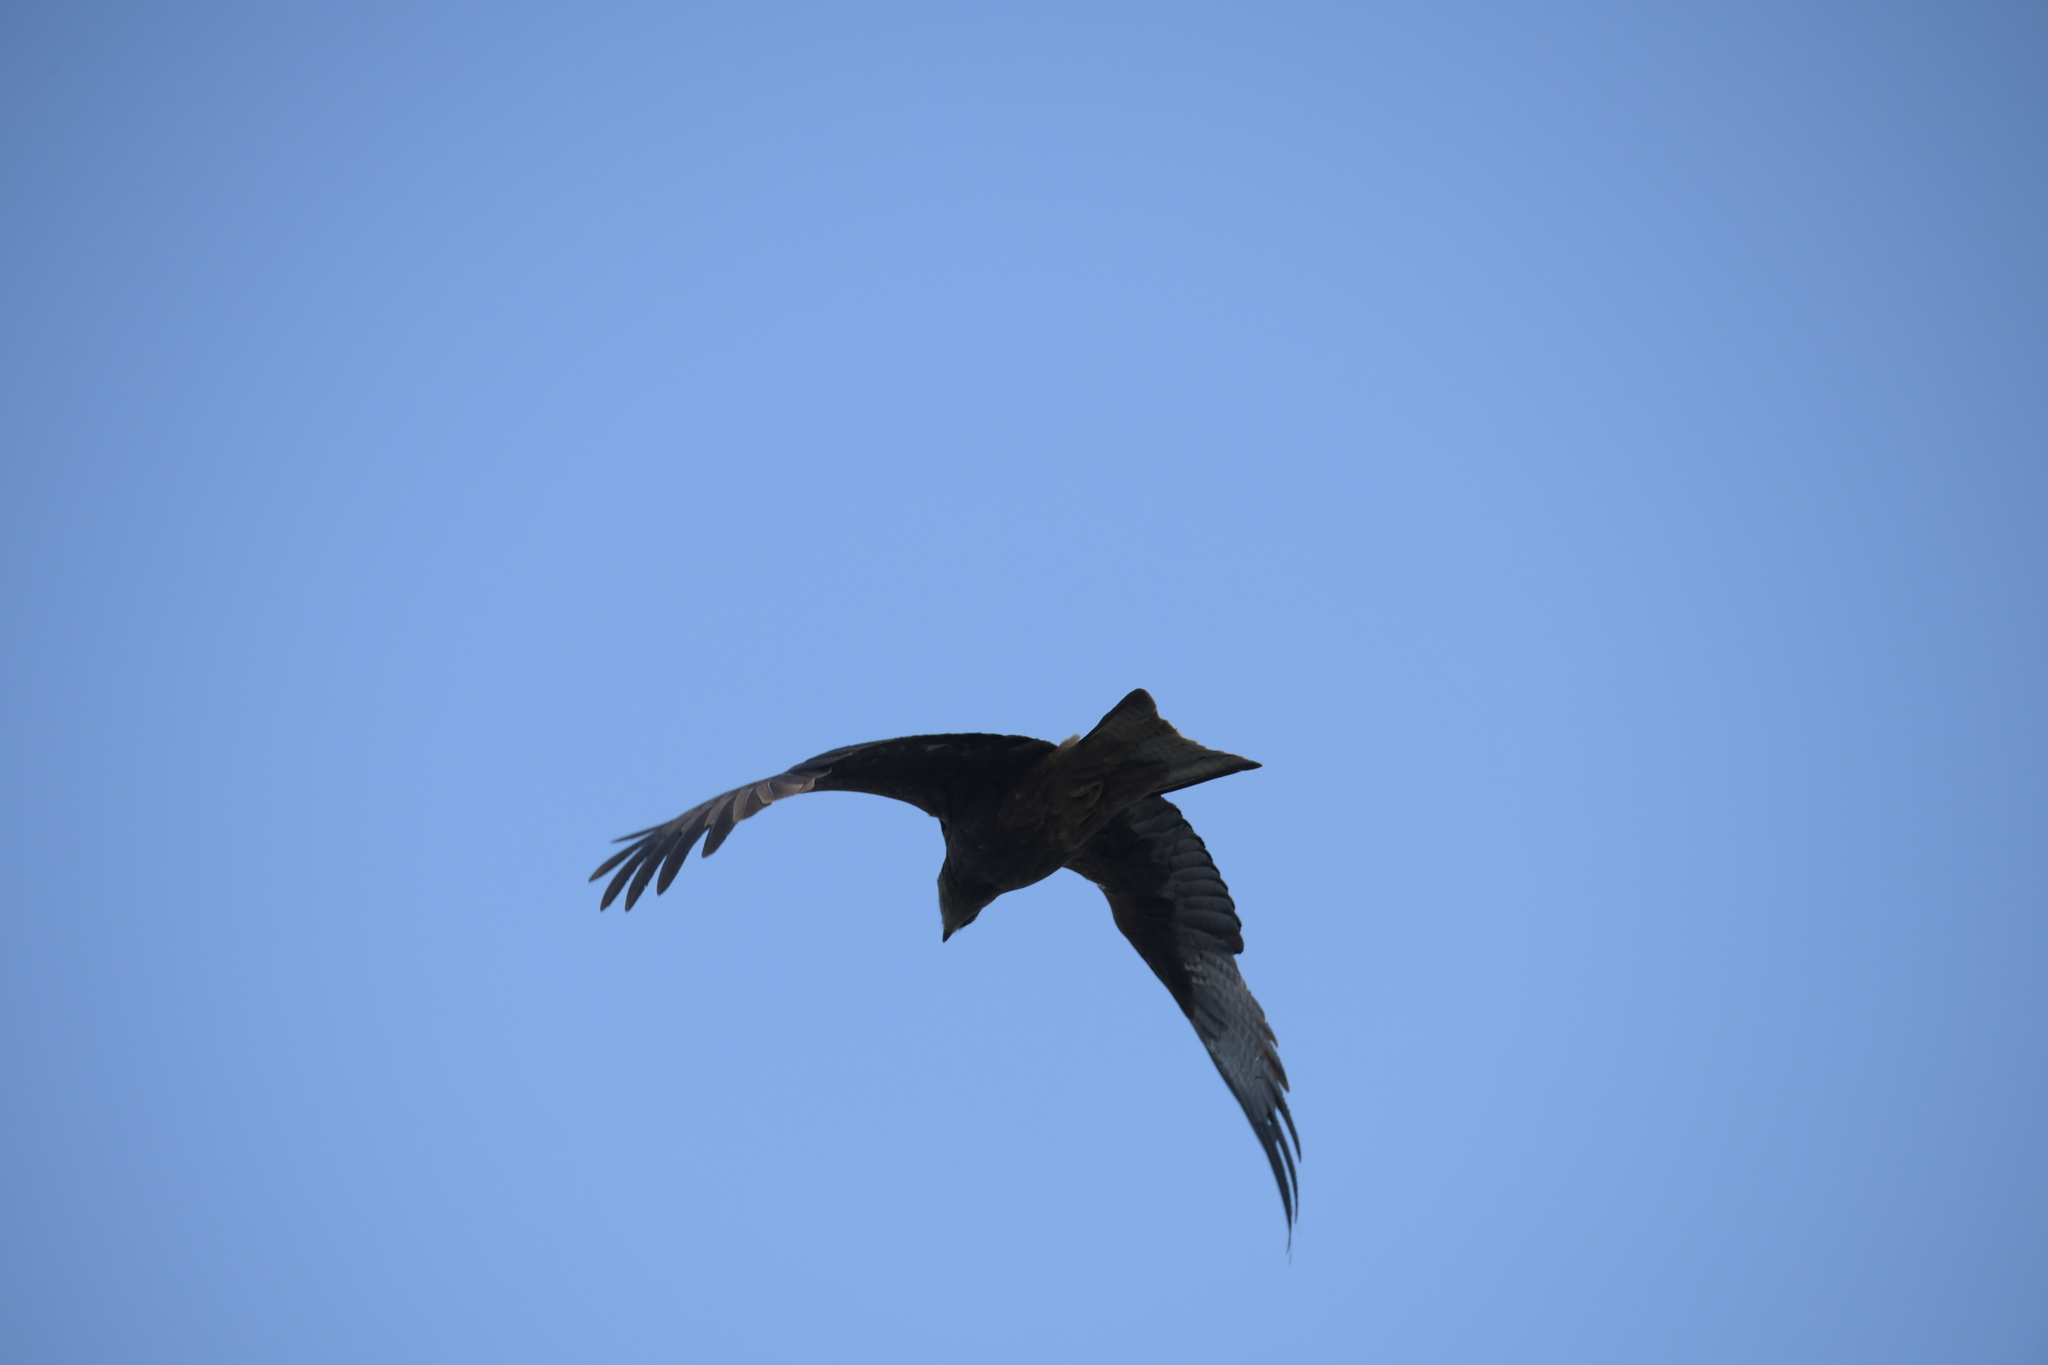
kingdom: Animalia
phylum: Chordata
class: Aves
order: Accipitriformes
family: Accipitridae
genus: Milvus
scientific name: Milvus migrans
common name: Black kite
